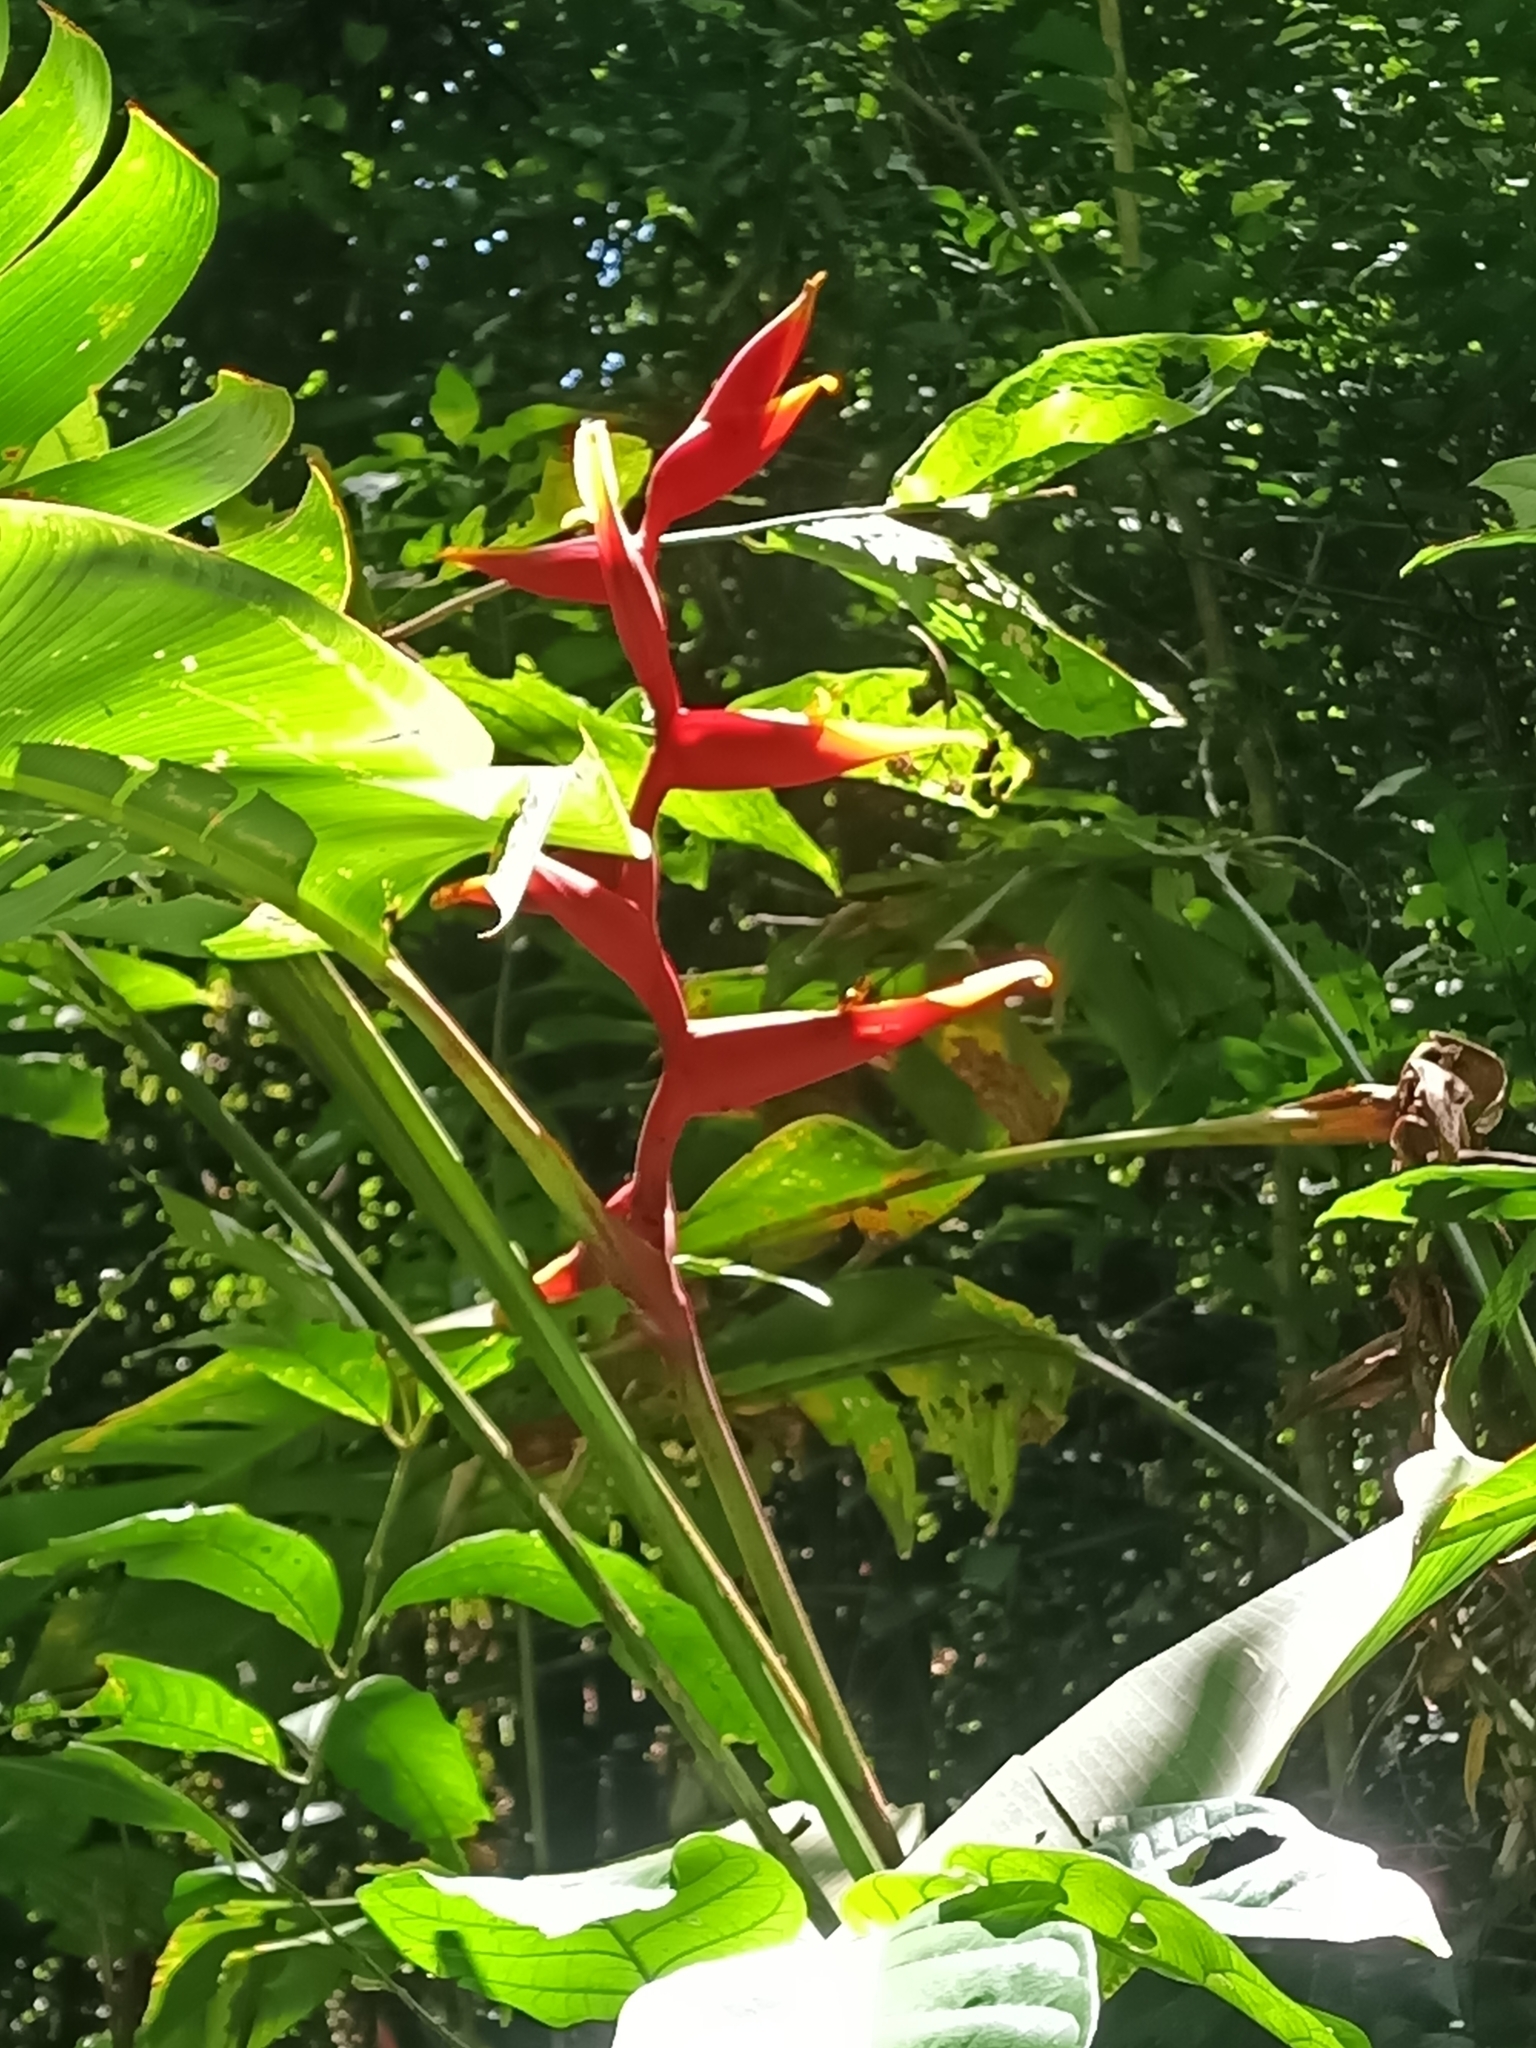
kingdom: Plantae
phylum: Tracheophyta
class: Liliopsida
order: Zingiberales
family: Heliconiaceae
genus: Heliconia
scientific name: Heliconia spathocircinata
